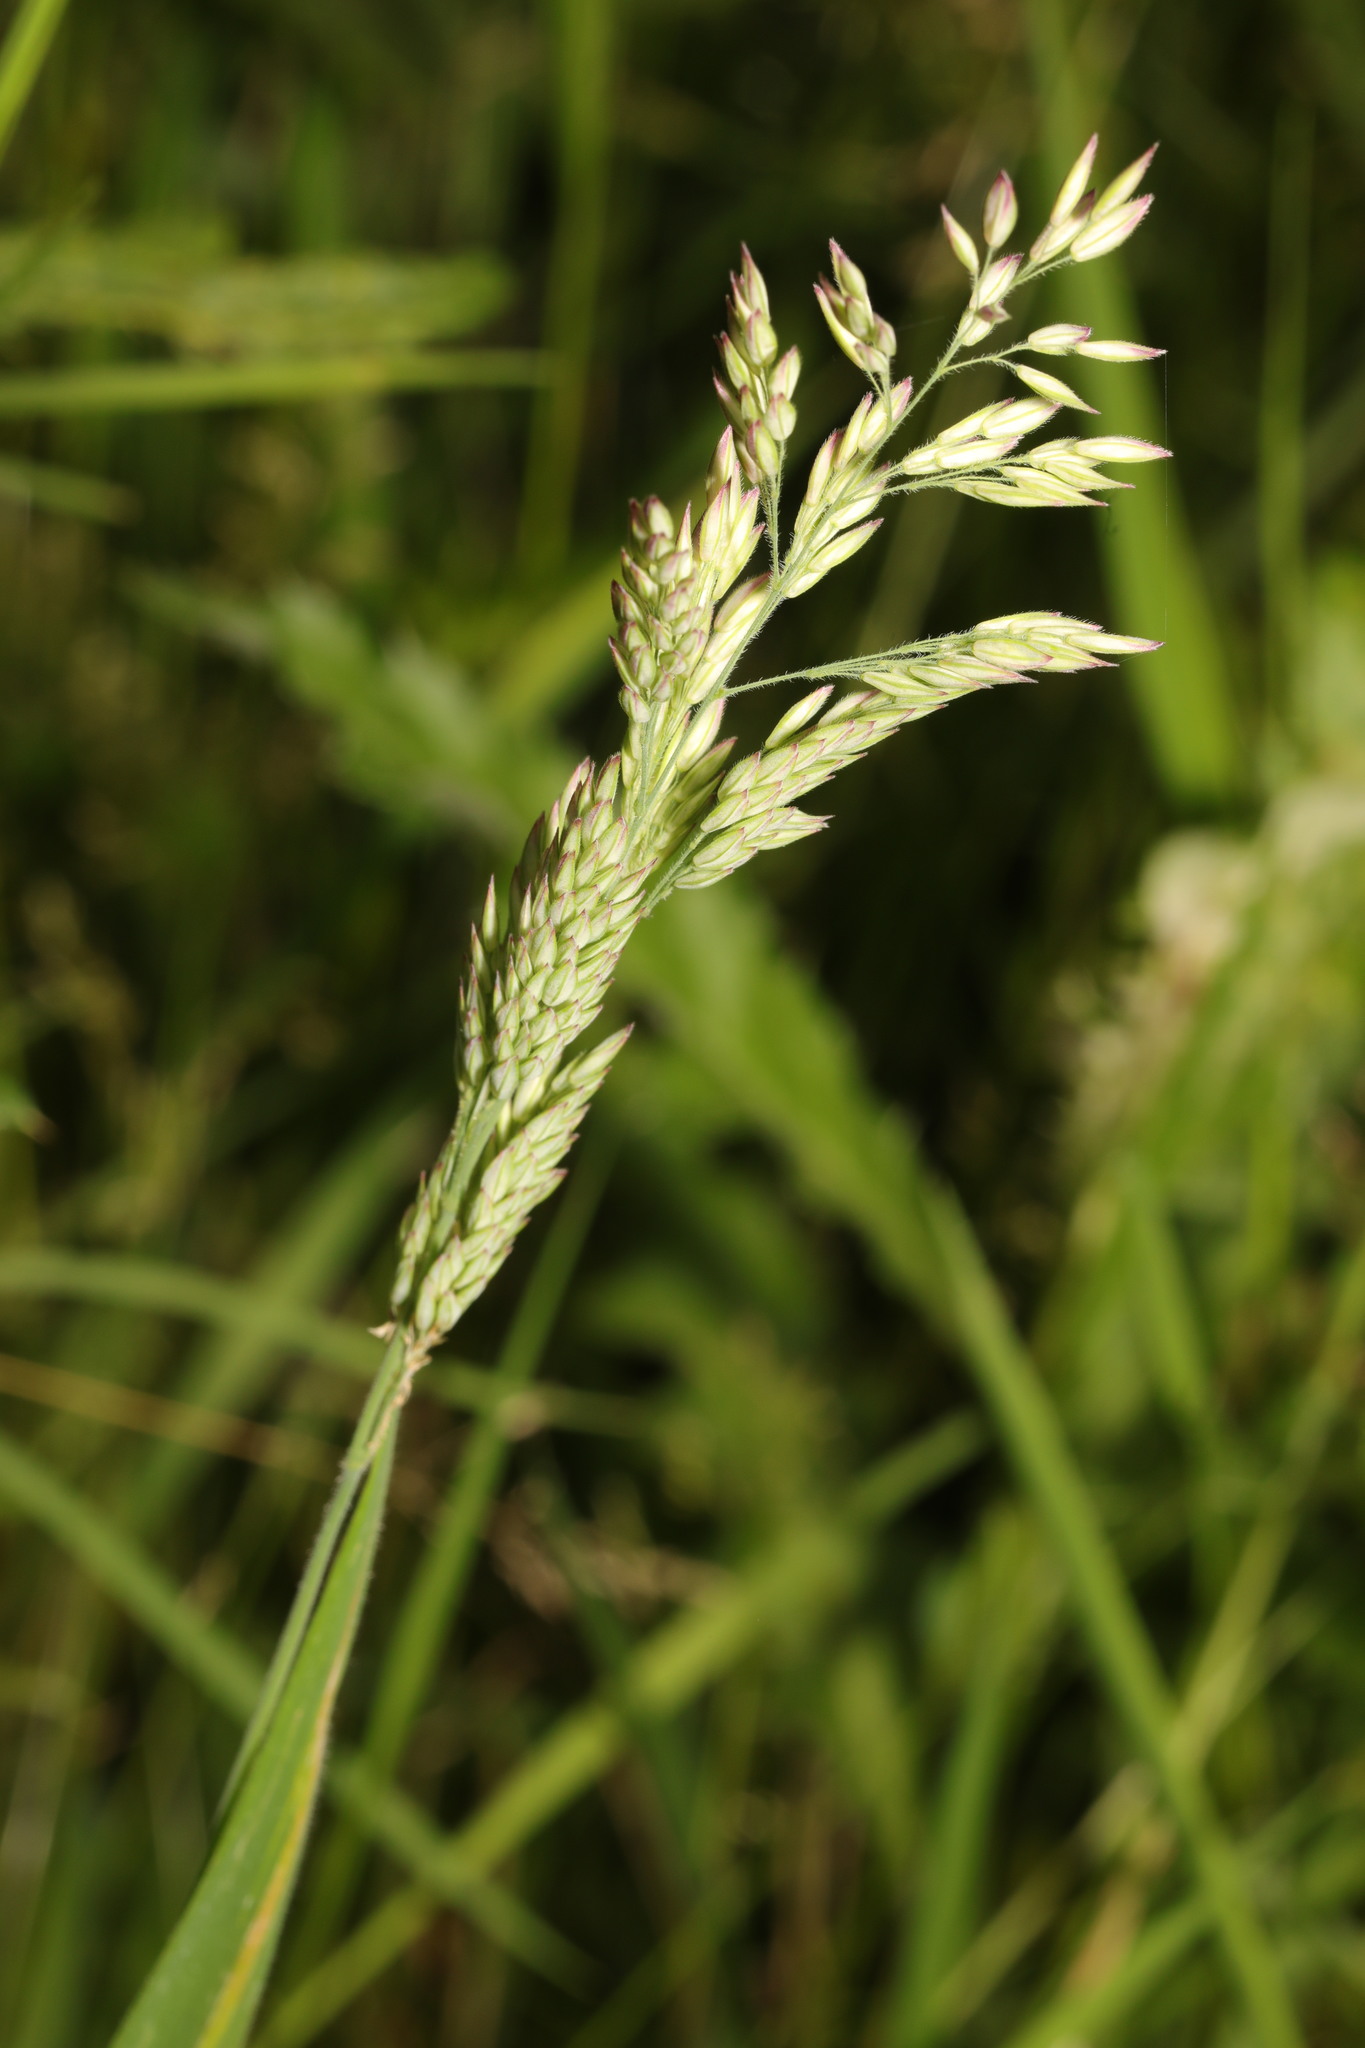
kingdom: Plantae
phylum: Tracheophyta
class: Liliopsida
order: Poales
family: Poaceae
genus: Holcus
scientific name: Holcus lanatus
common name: Yorkshire-fog
